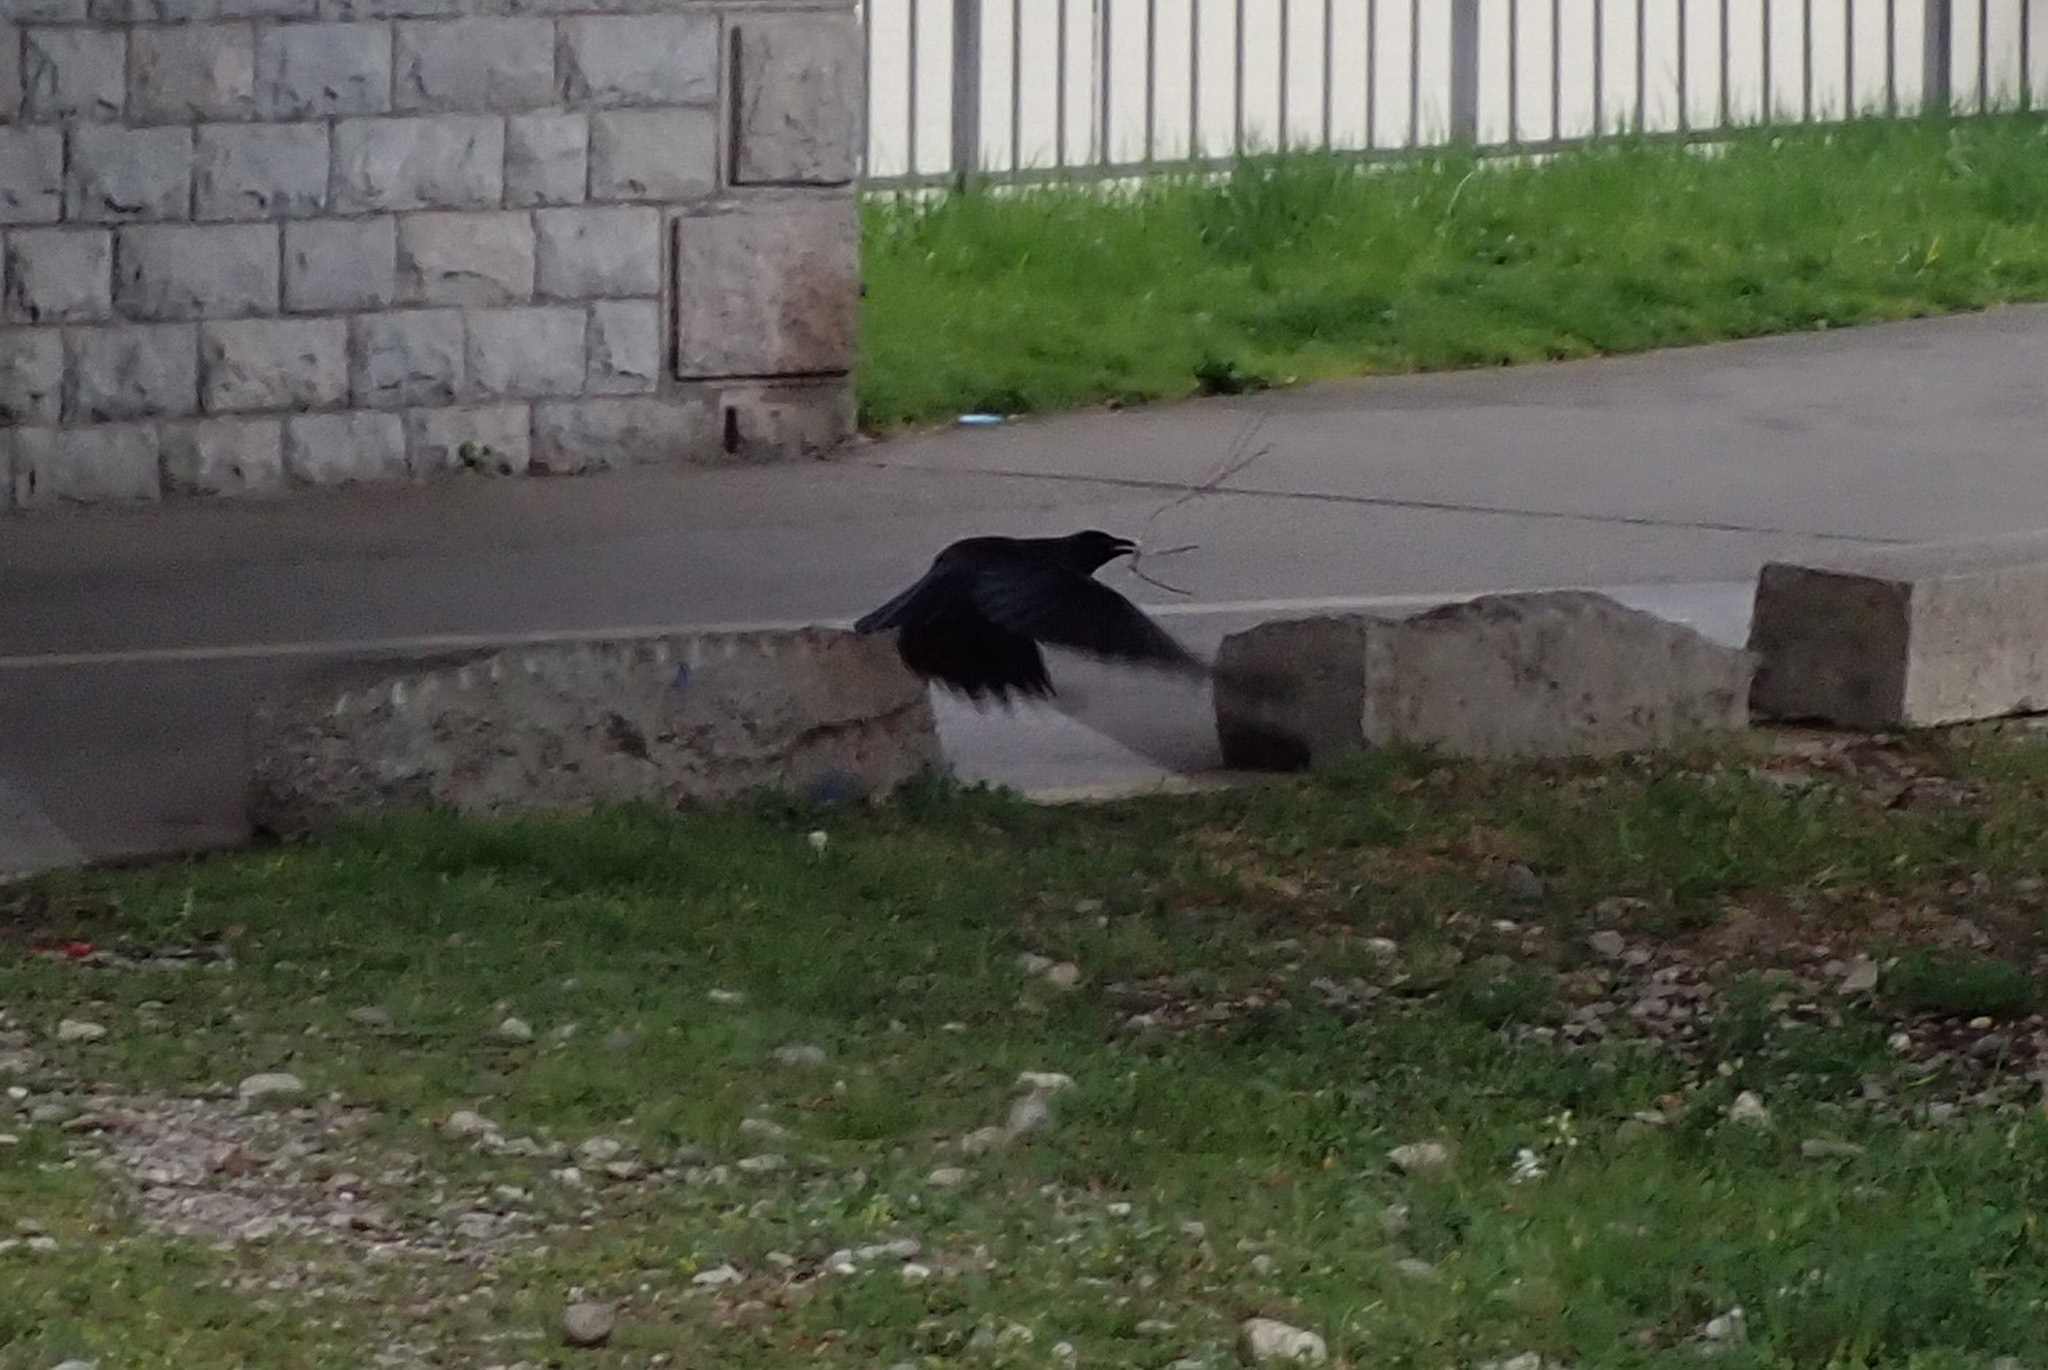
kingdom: Animalia
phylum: Chordata
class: Aves
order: Passeriformes
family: Corvidae
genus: Corvus
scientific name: Corvus corone
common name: Carrion crow
